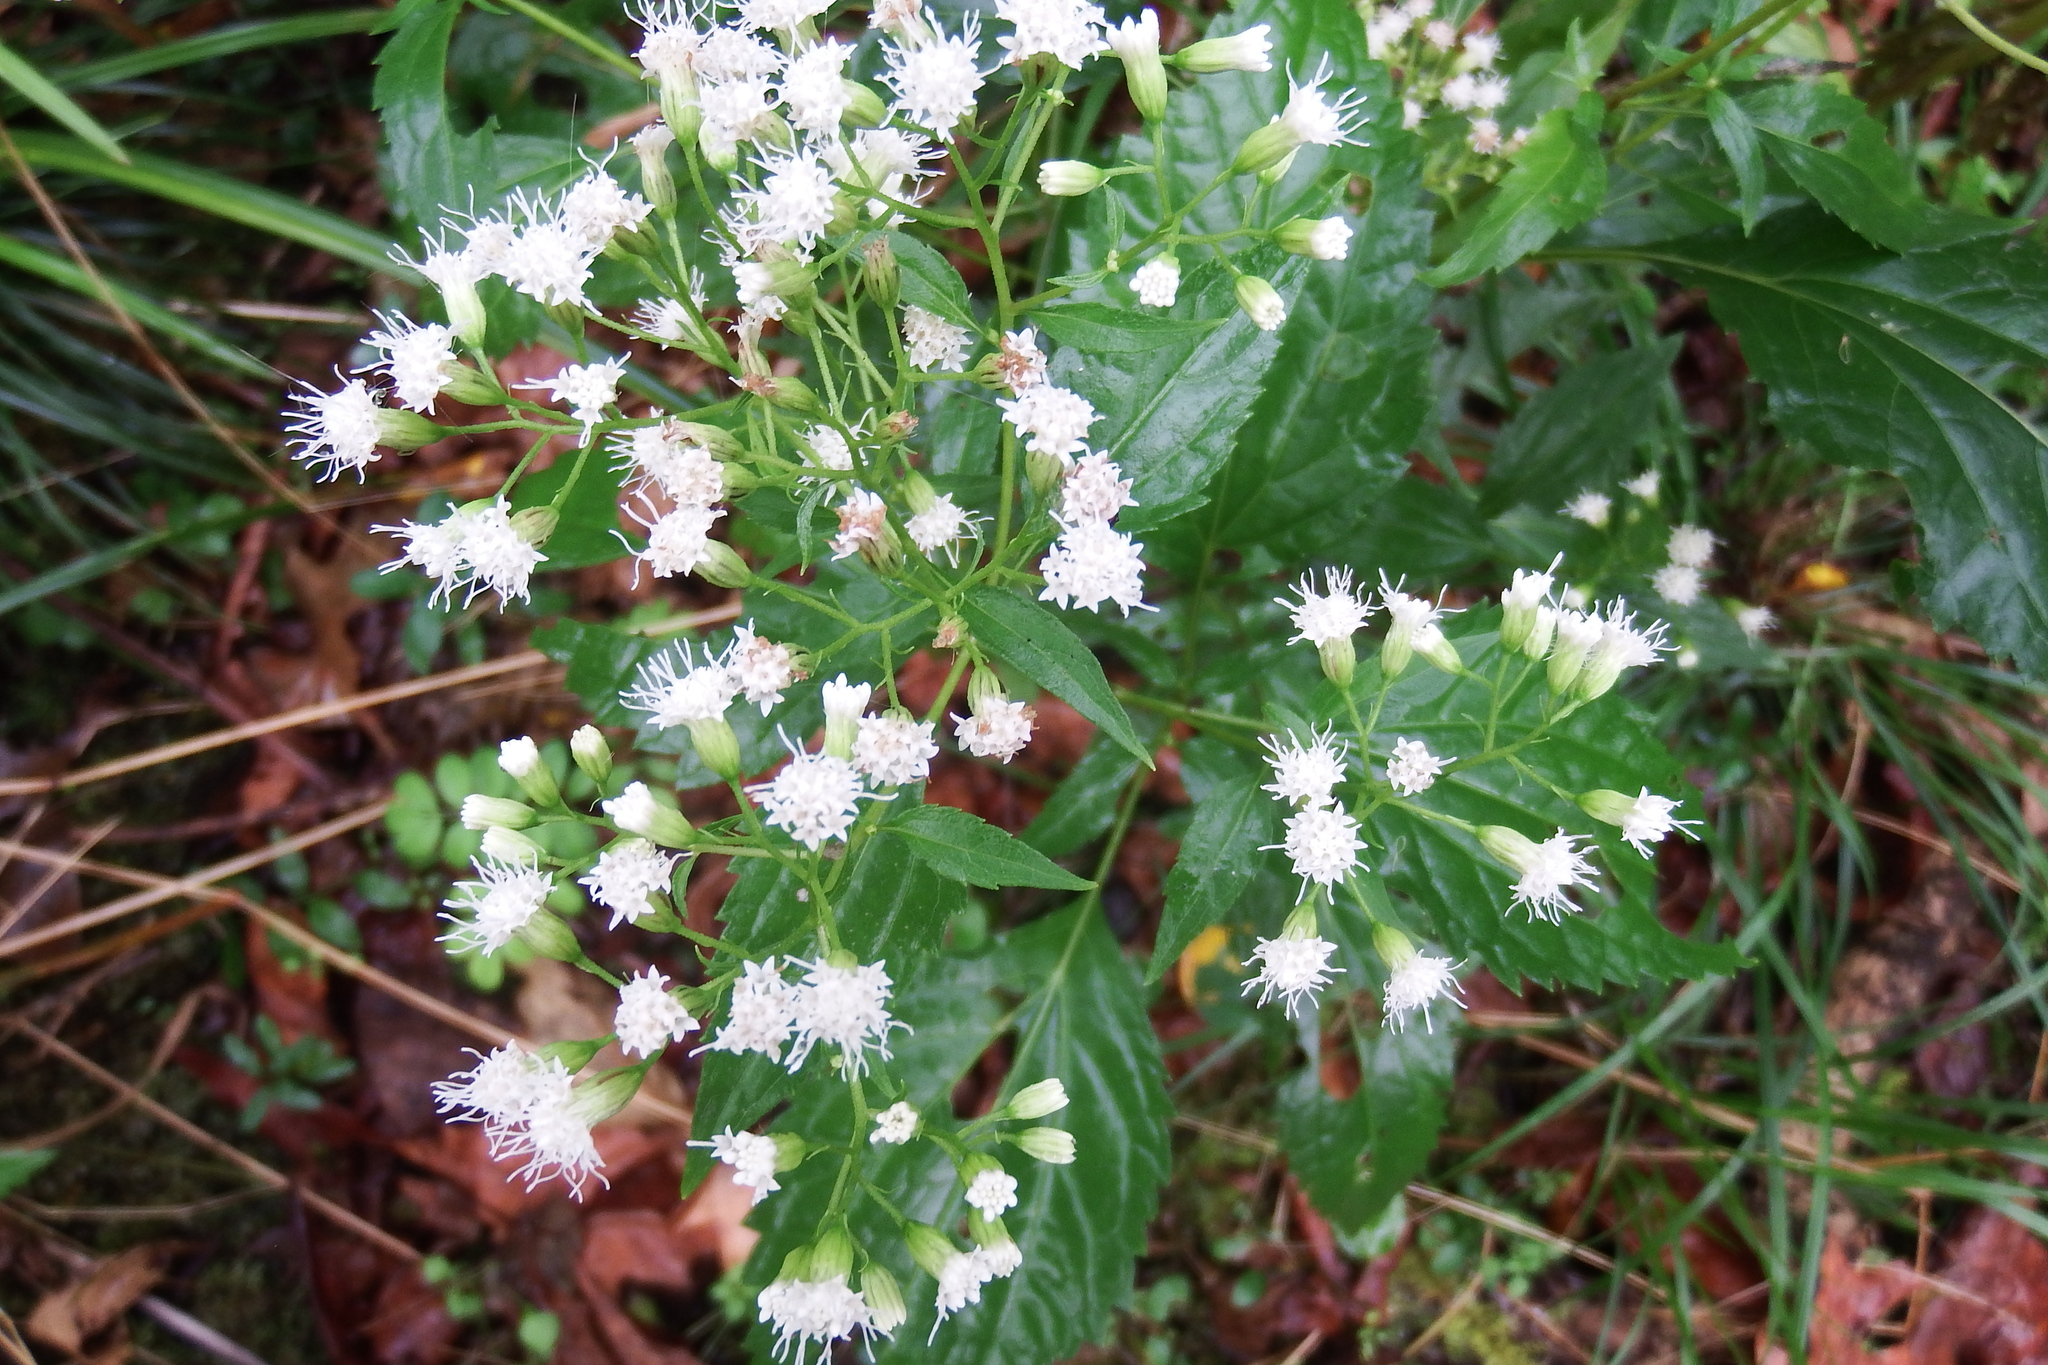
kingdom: Plantae
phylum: Tracheophyta
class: Magnoliopsida
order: Asterales
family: Asteraceae
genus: Ageratina
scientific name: Ageratina altissima
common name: White snakeroot
